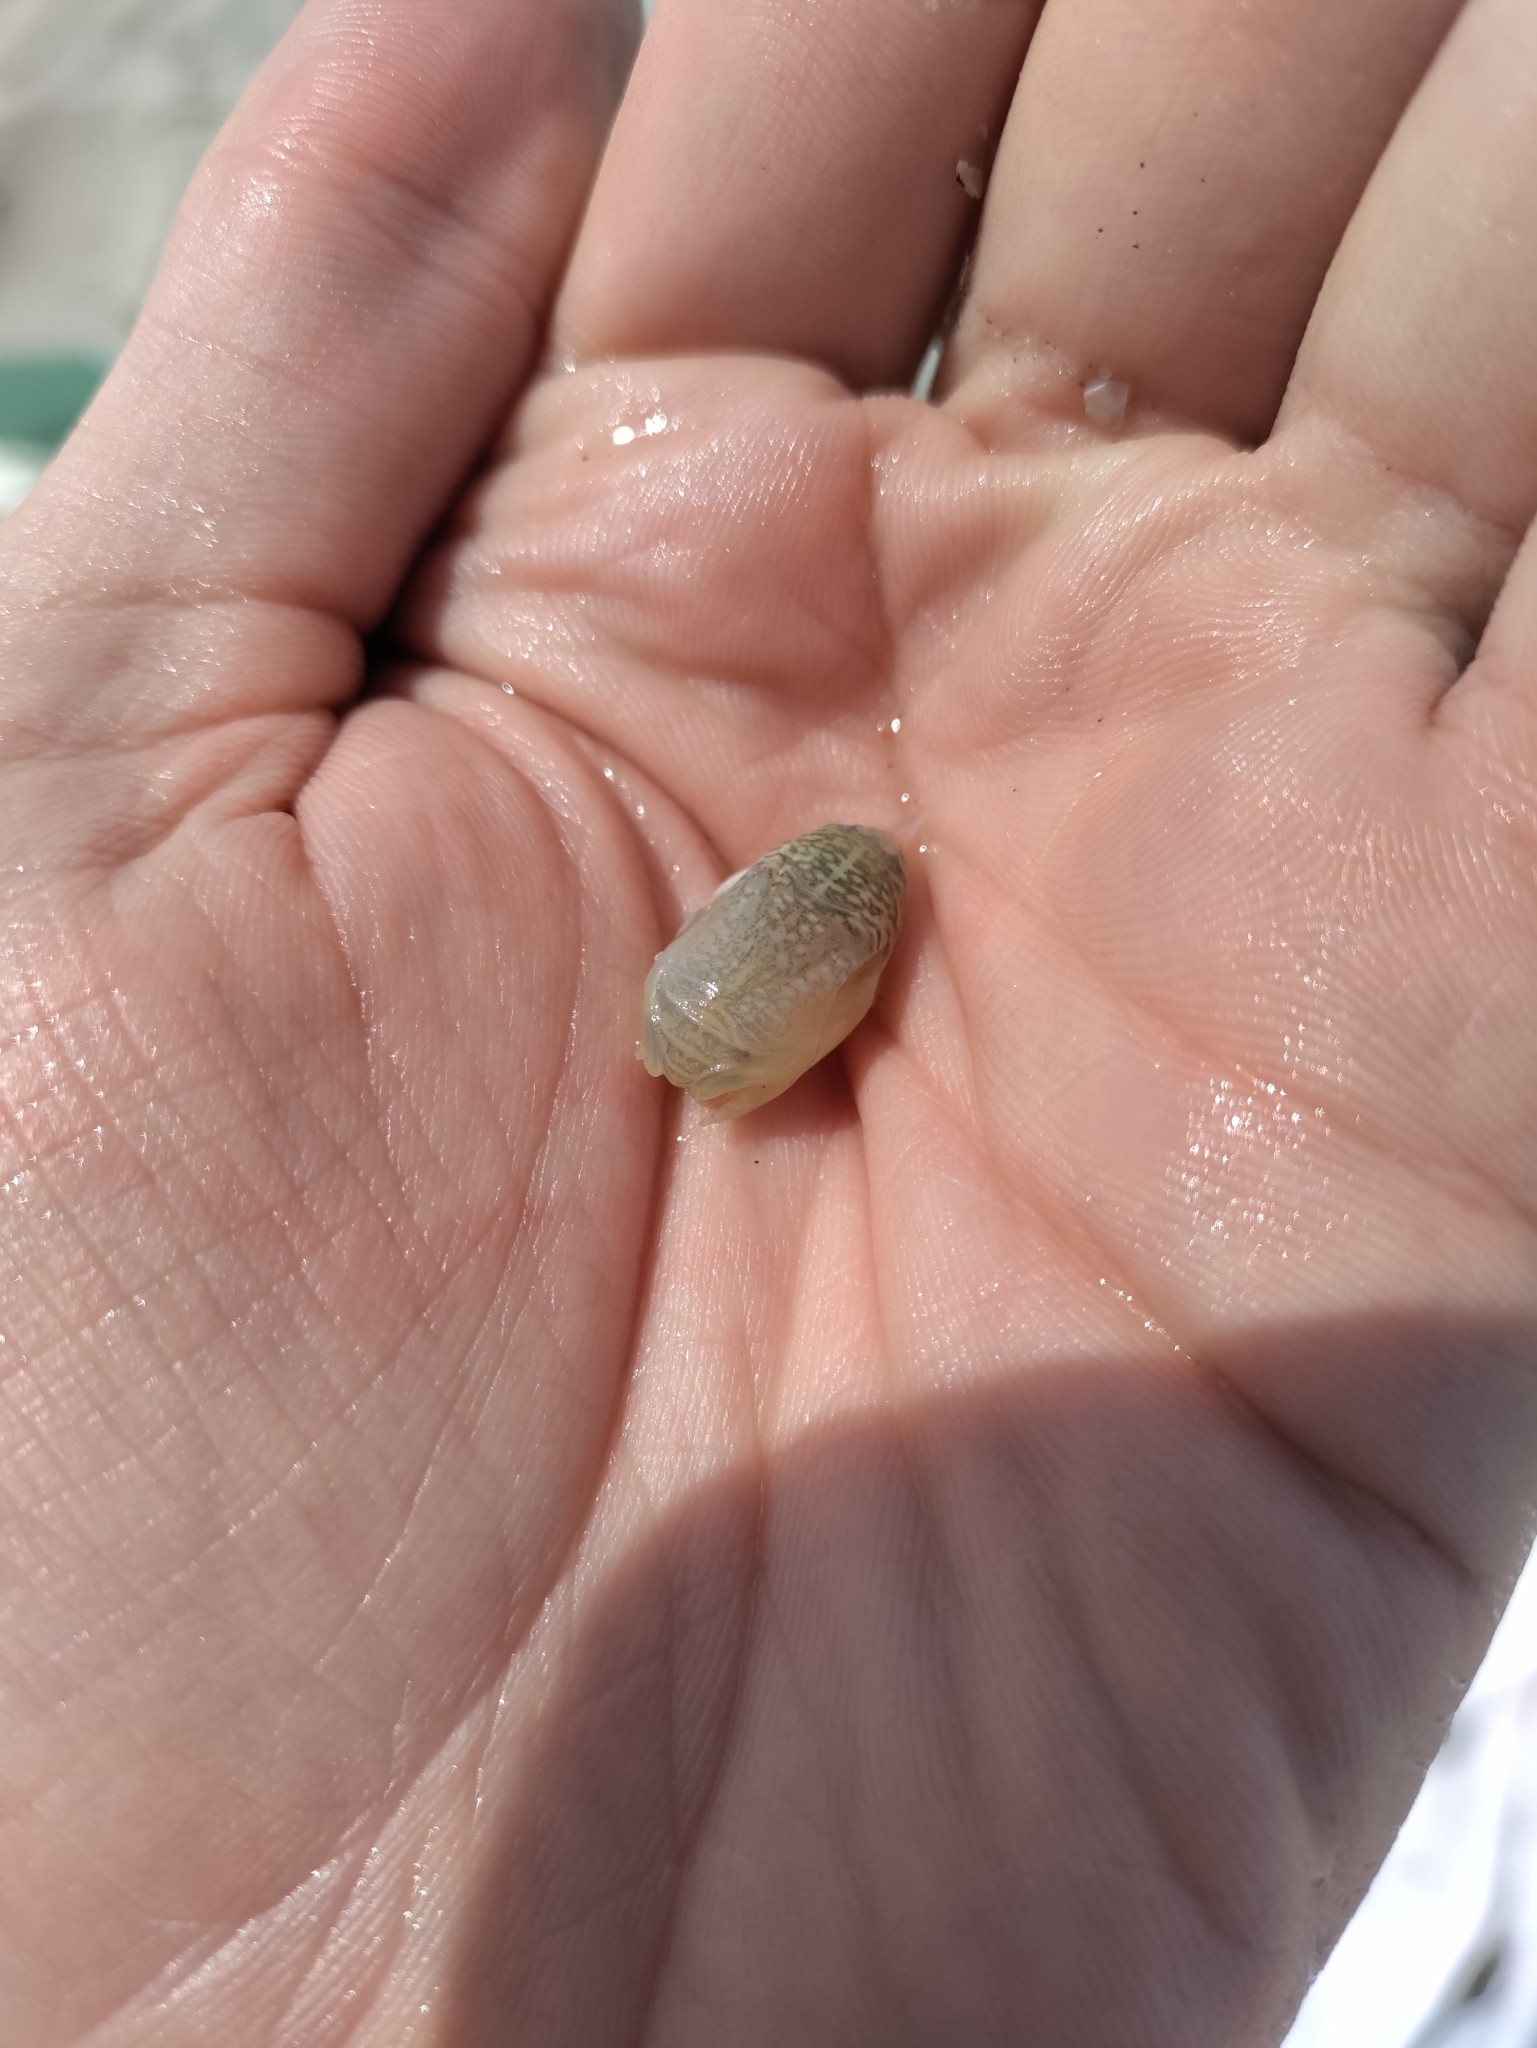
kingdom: Animalia
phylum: Arthropoda
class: Malacostraca
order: Decapoda
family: Hippidae
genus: Emerita
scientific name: Emerita talpoida
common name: Atlantic sand crab
